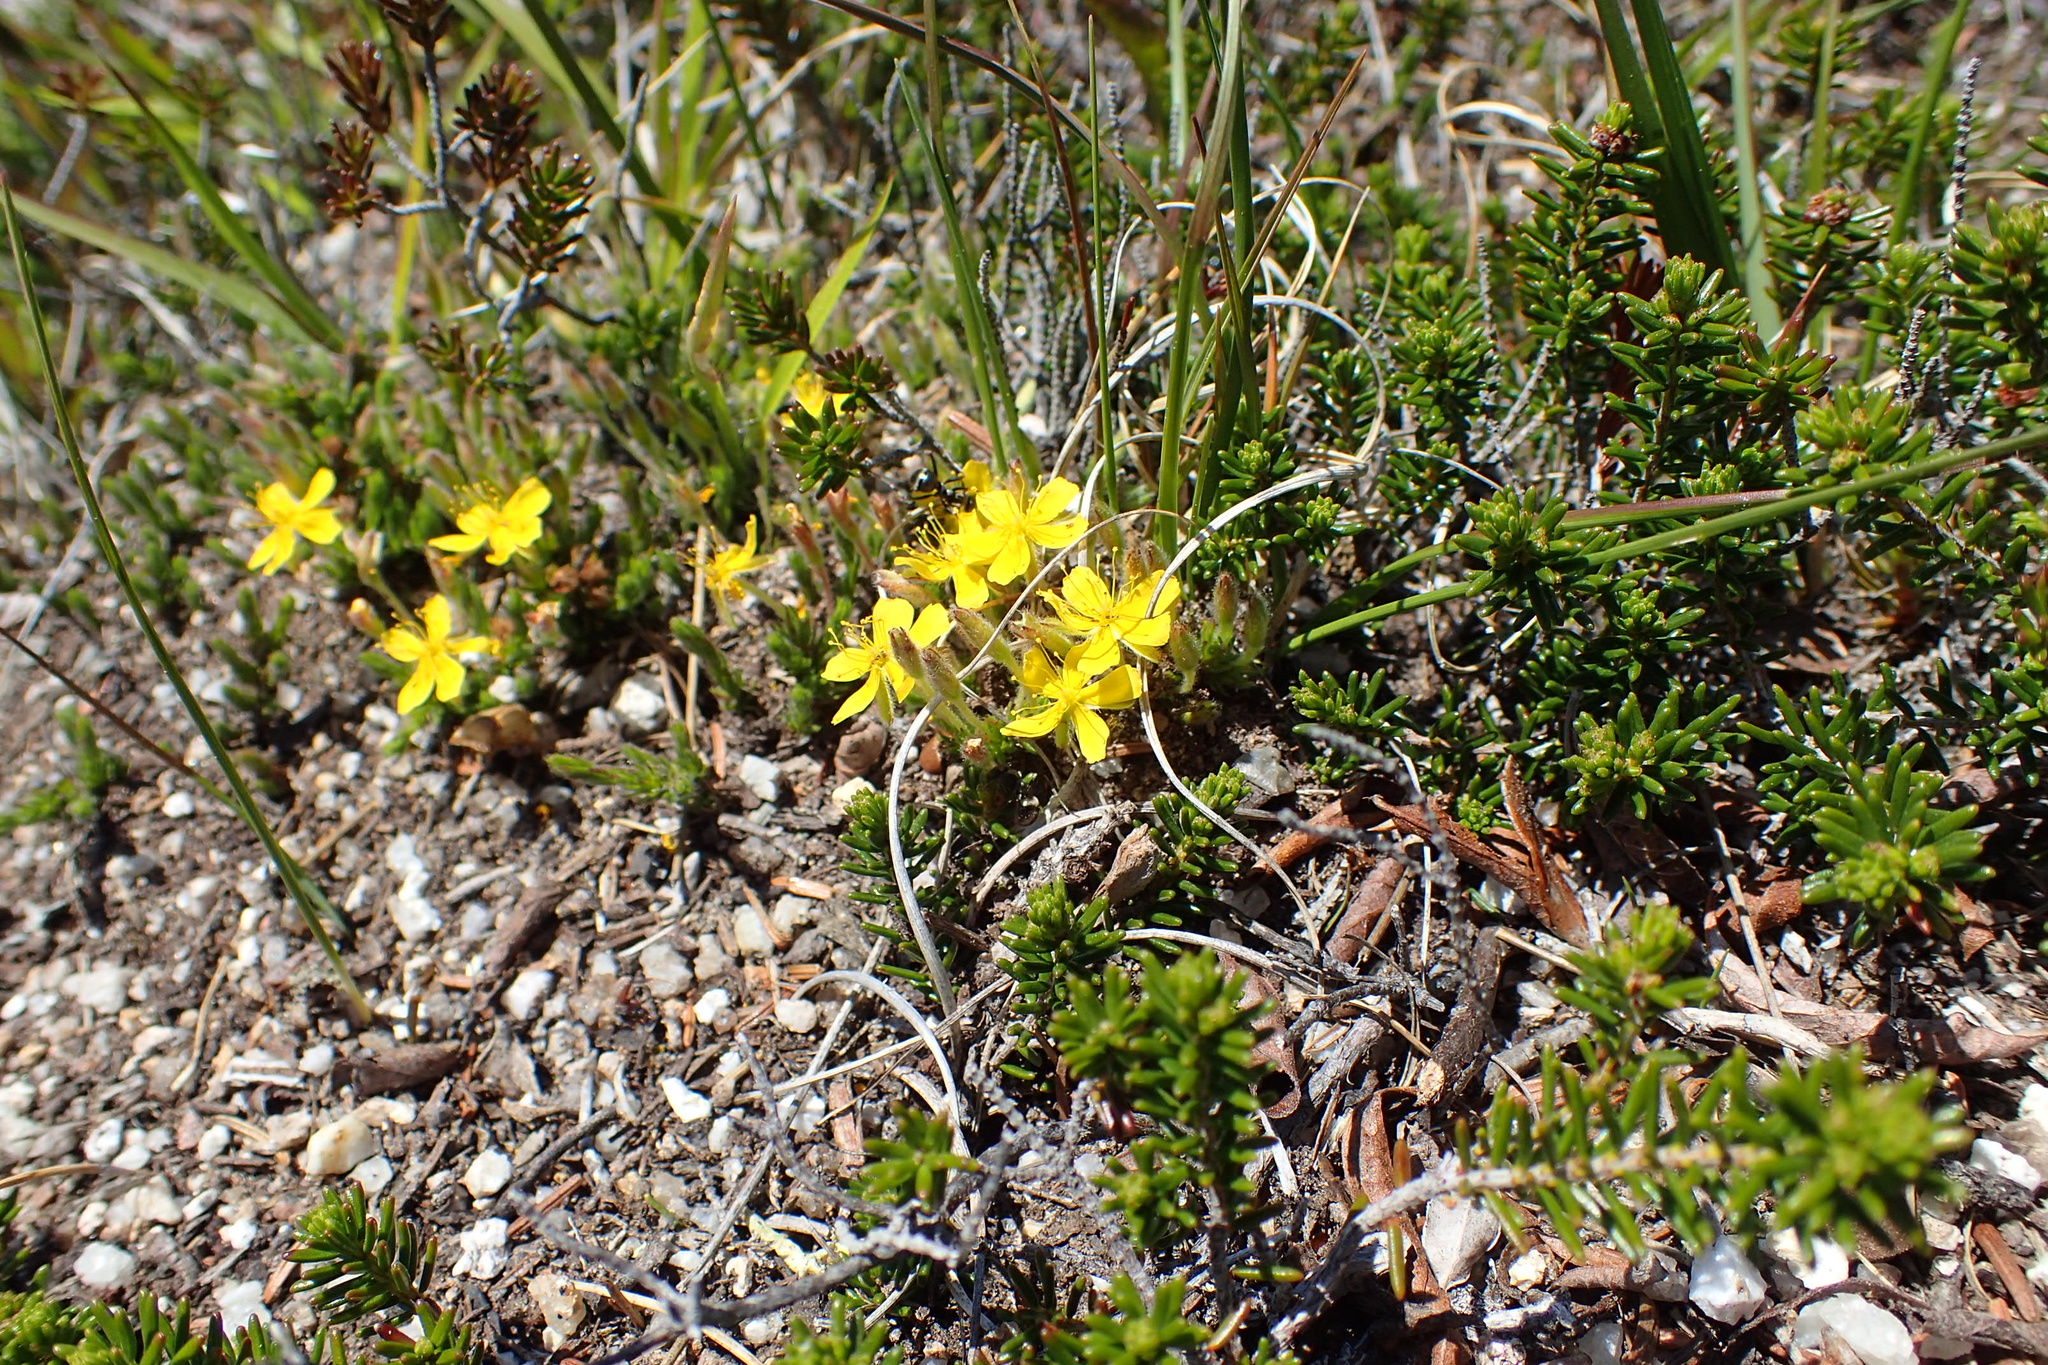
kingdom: Plantae
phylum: Tracheophyta
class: Magnoliopsida
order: Malvales
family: Cistaceae
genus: Hudsonia
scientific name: Hudsonia ericoides
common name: Golden-heather
